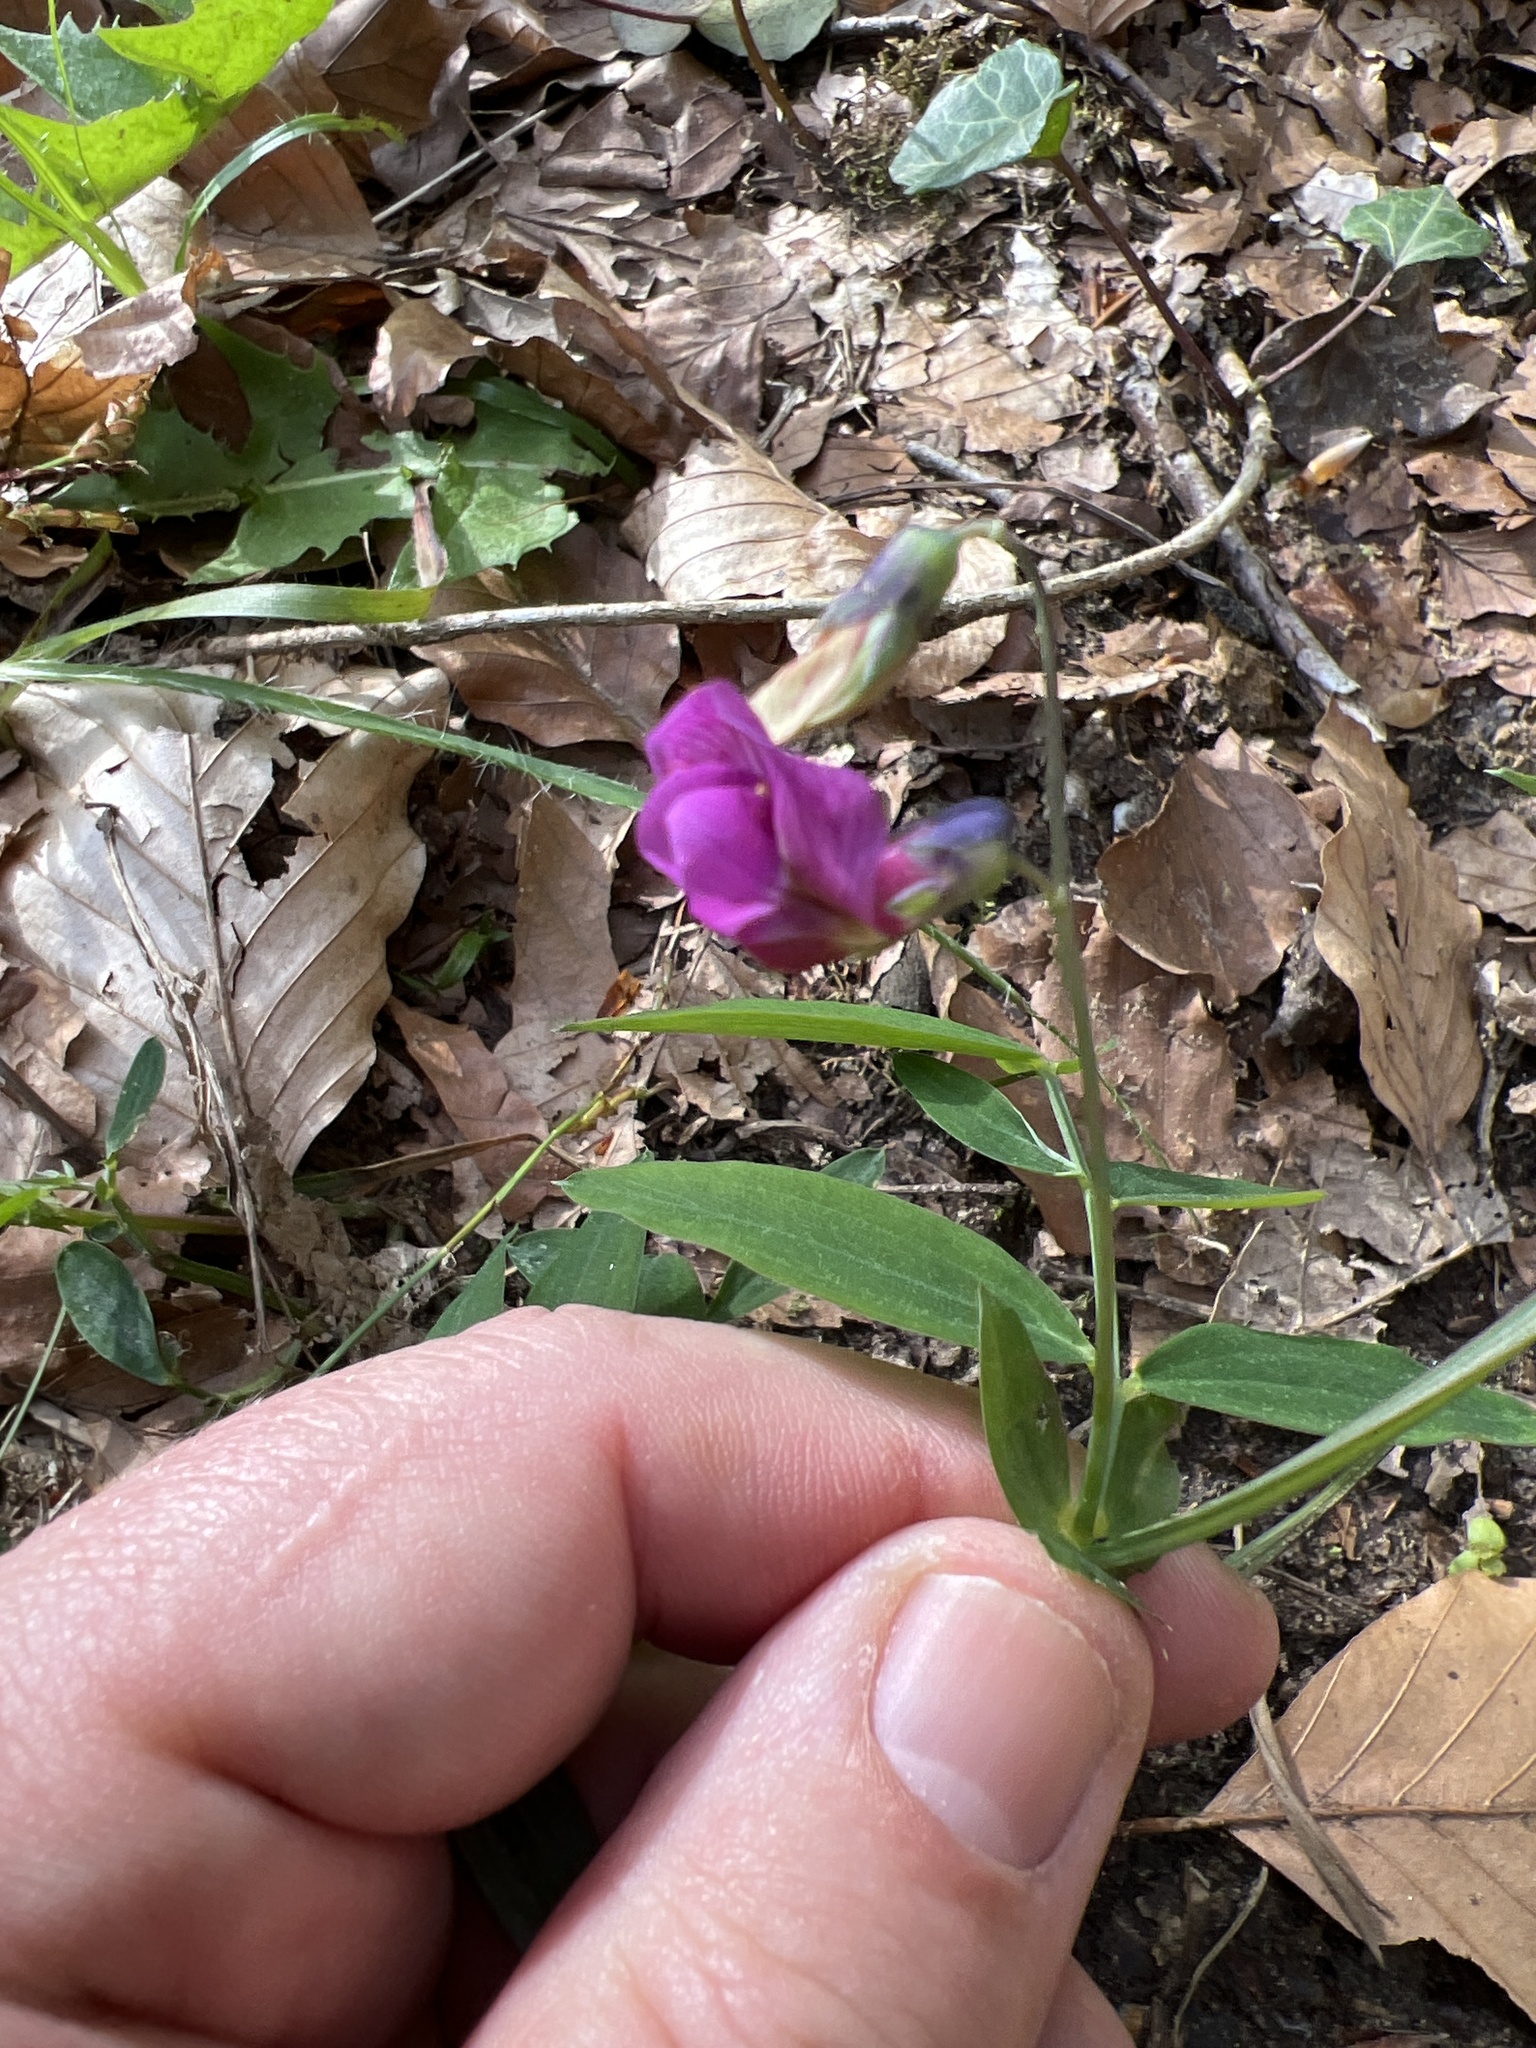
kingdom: Plantae
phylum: Tracheophyta
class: Magnoliopsida
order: Fabales
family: Fabaceae
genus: Lathyrus
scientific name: Lathyrus linifolius
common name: Bitter-vetch
